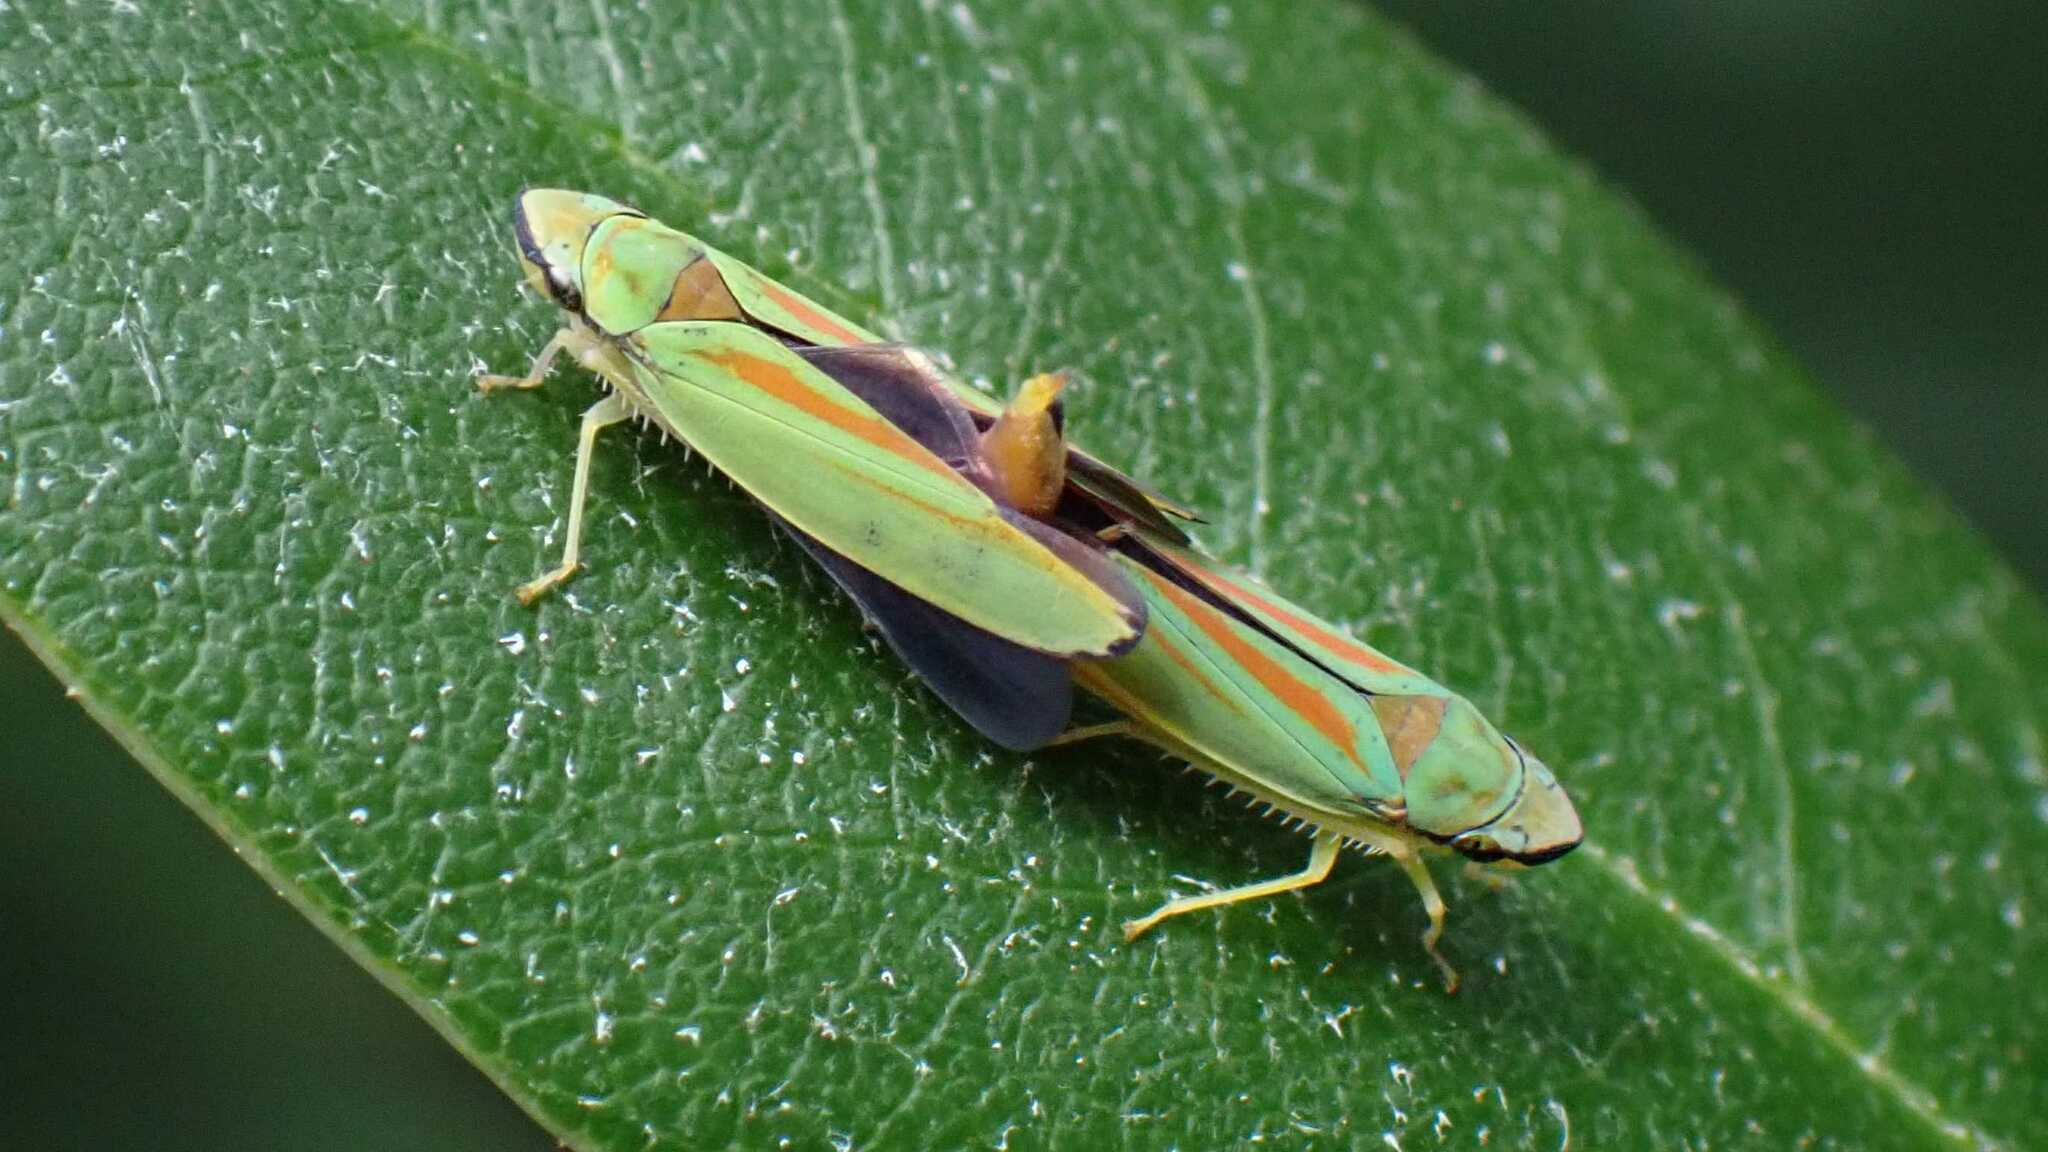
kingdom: Animalia
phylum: Arthropoda
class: Insecta
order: Hemiptera
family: Cicadellidae
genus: Graphocephala
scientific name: Graphocephala fennahi
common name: Rhododendron leafhopper
